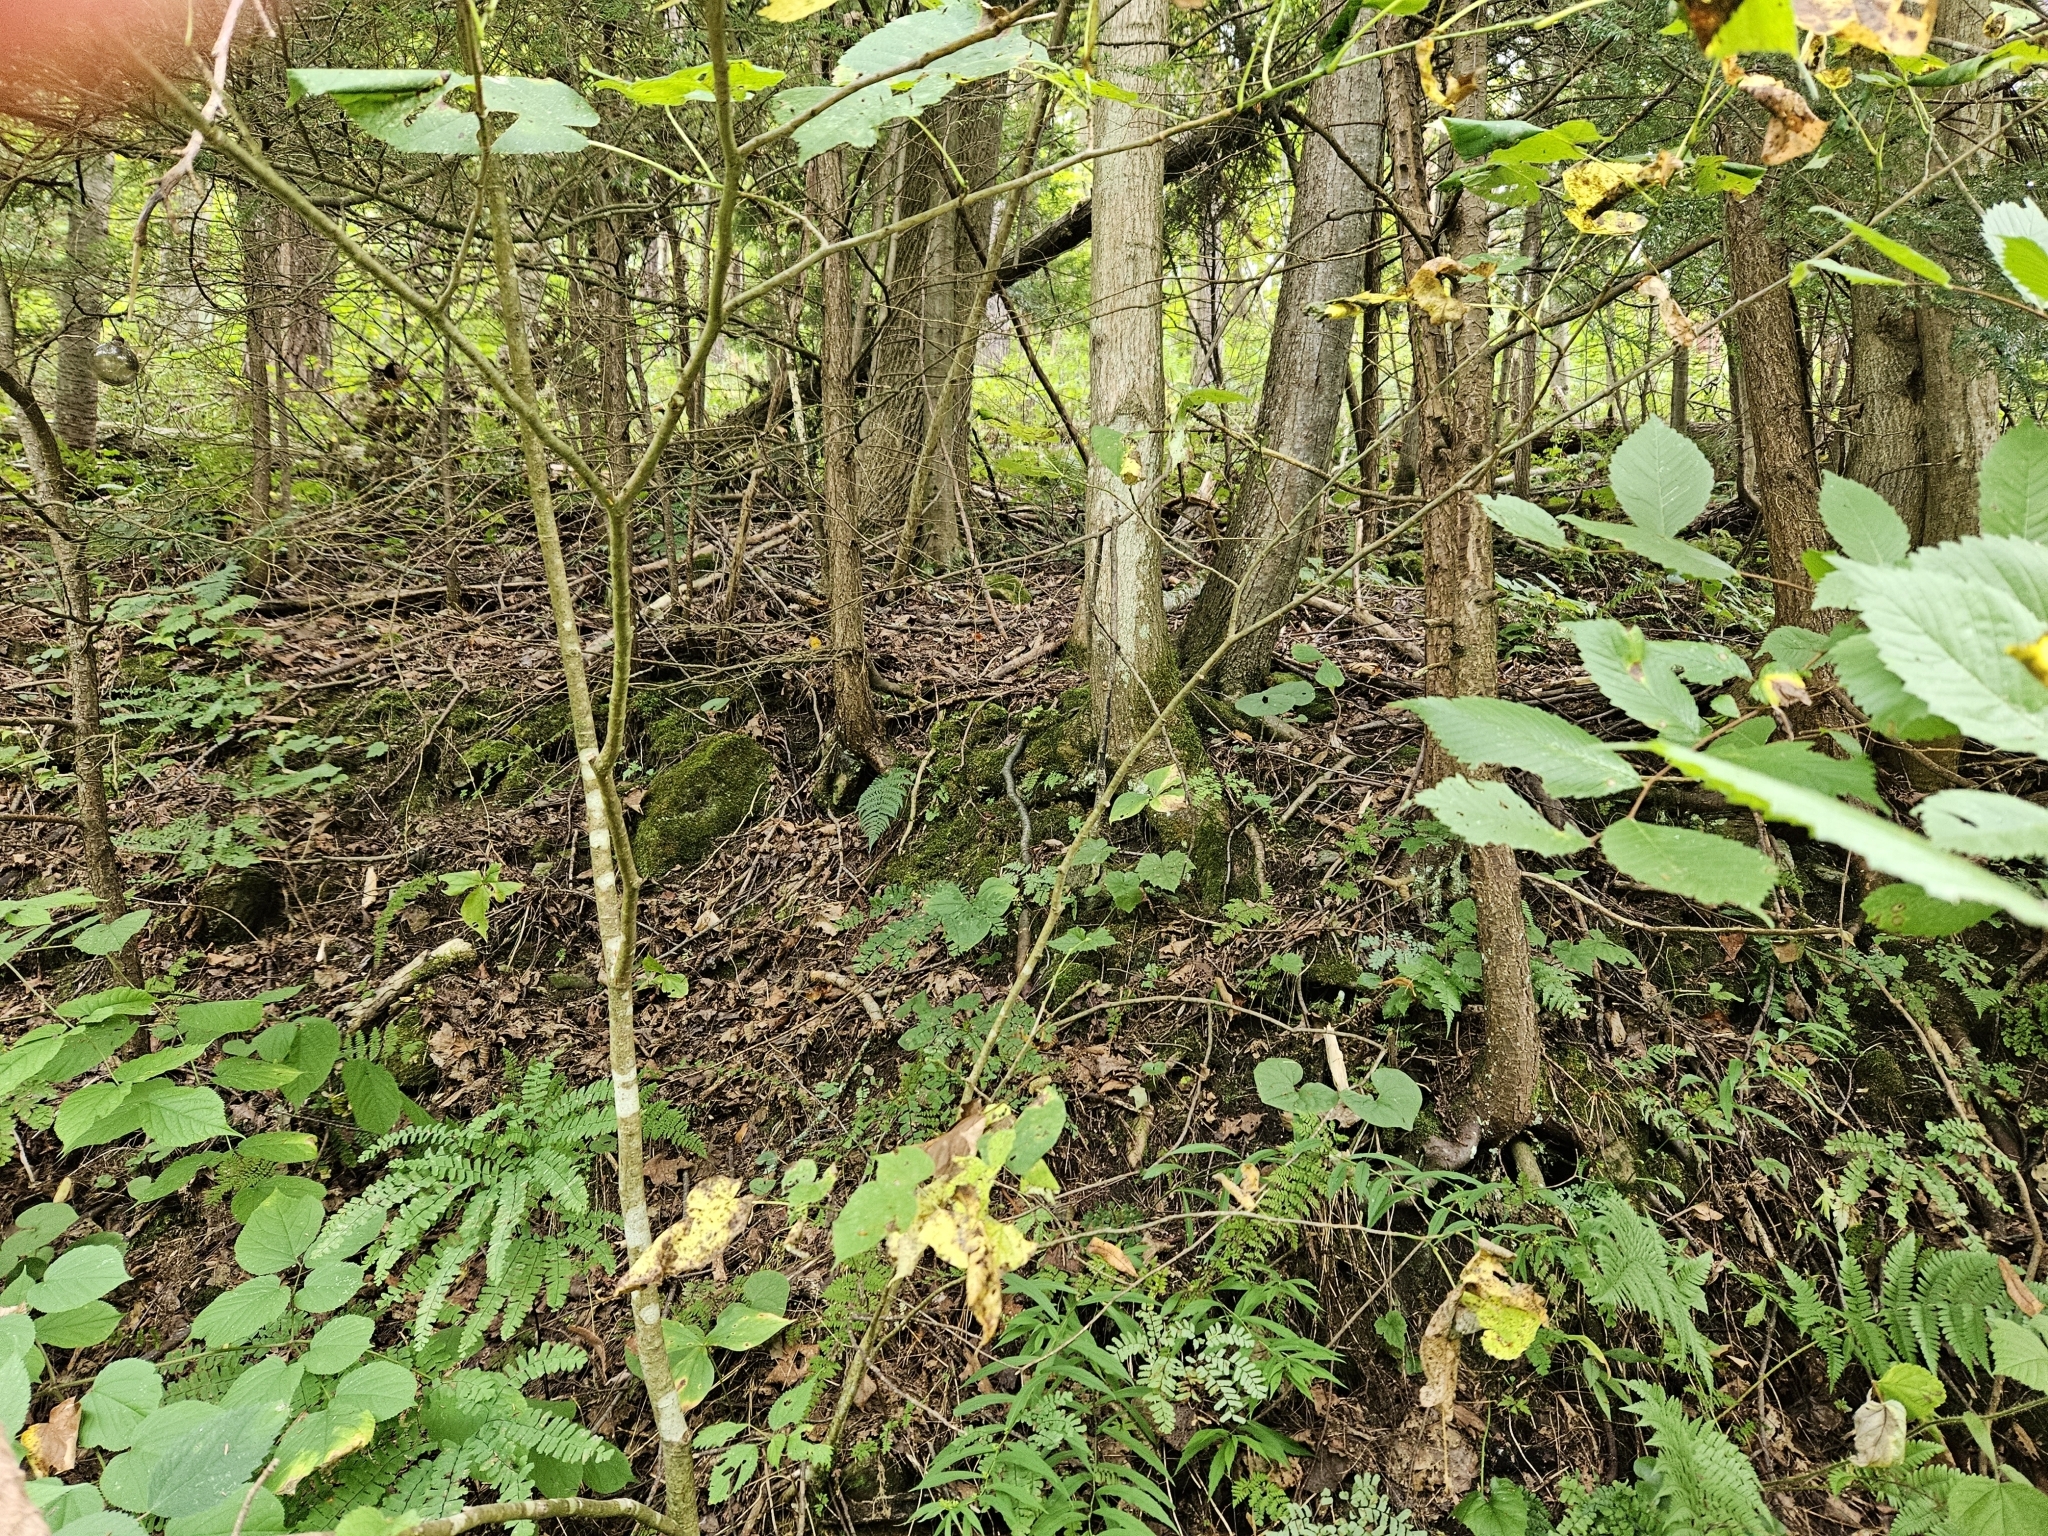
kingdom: Plantae
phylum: Tracheophyta
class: Liliopsida
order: Liliales
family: Melanthiaceae
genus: Trillium
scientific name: Trillium erectum
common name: Purple trillium
